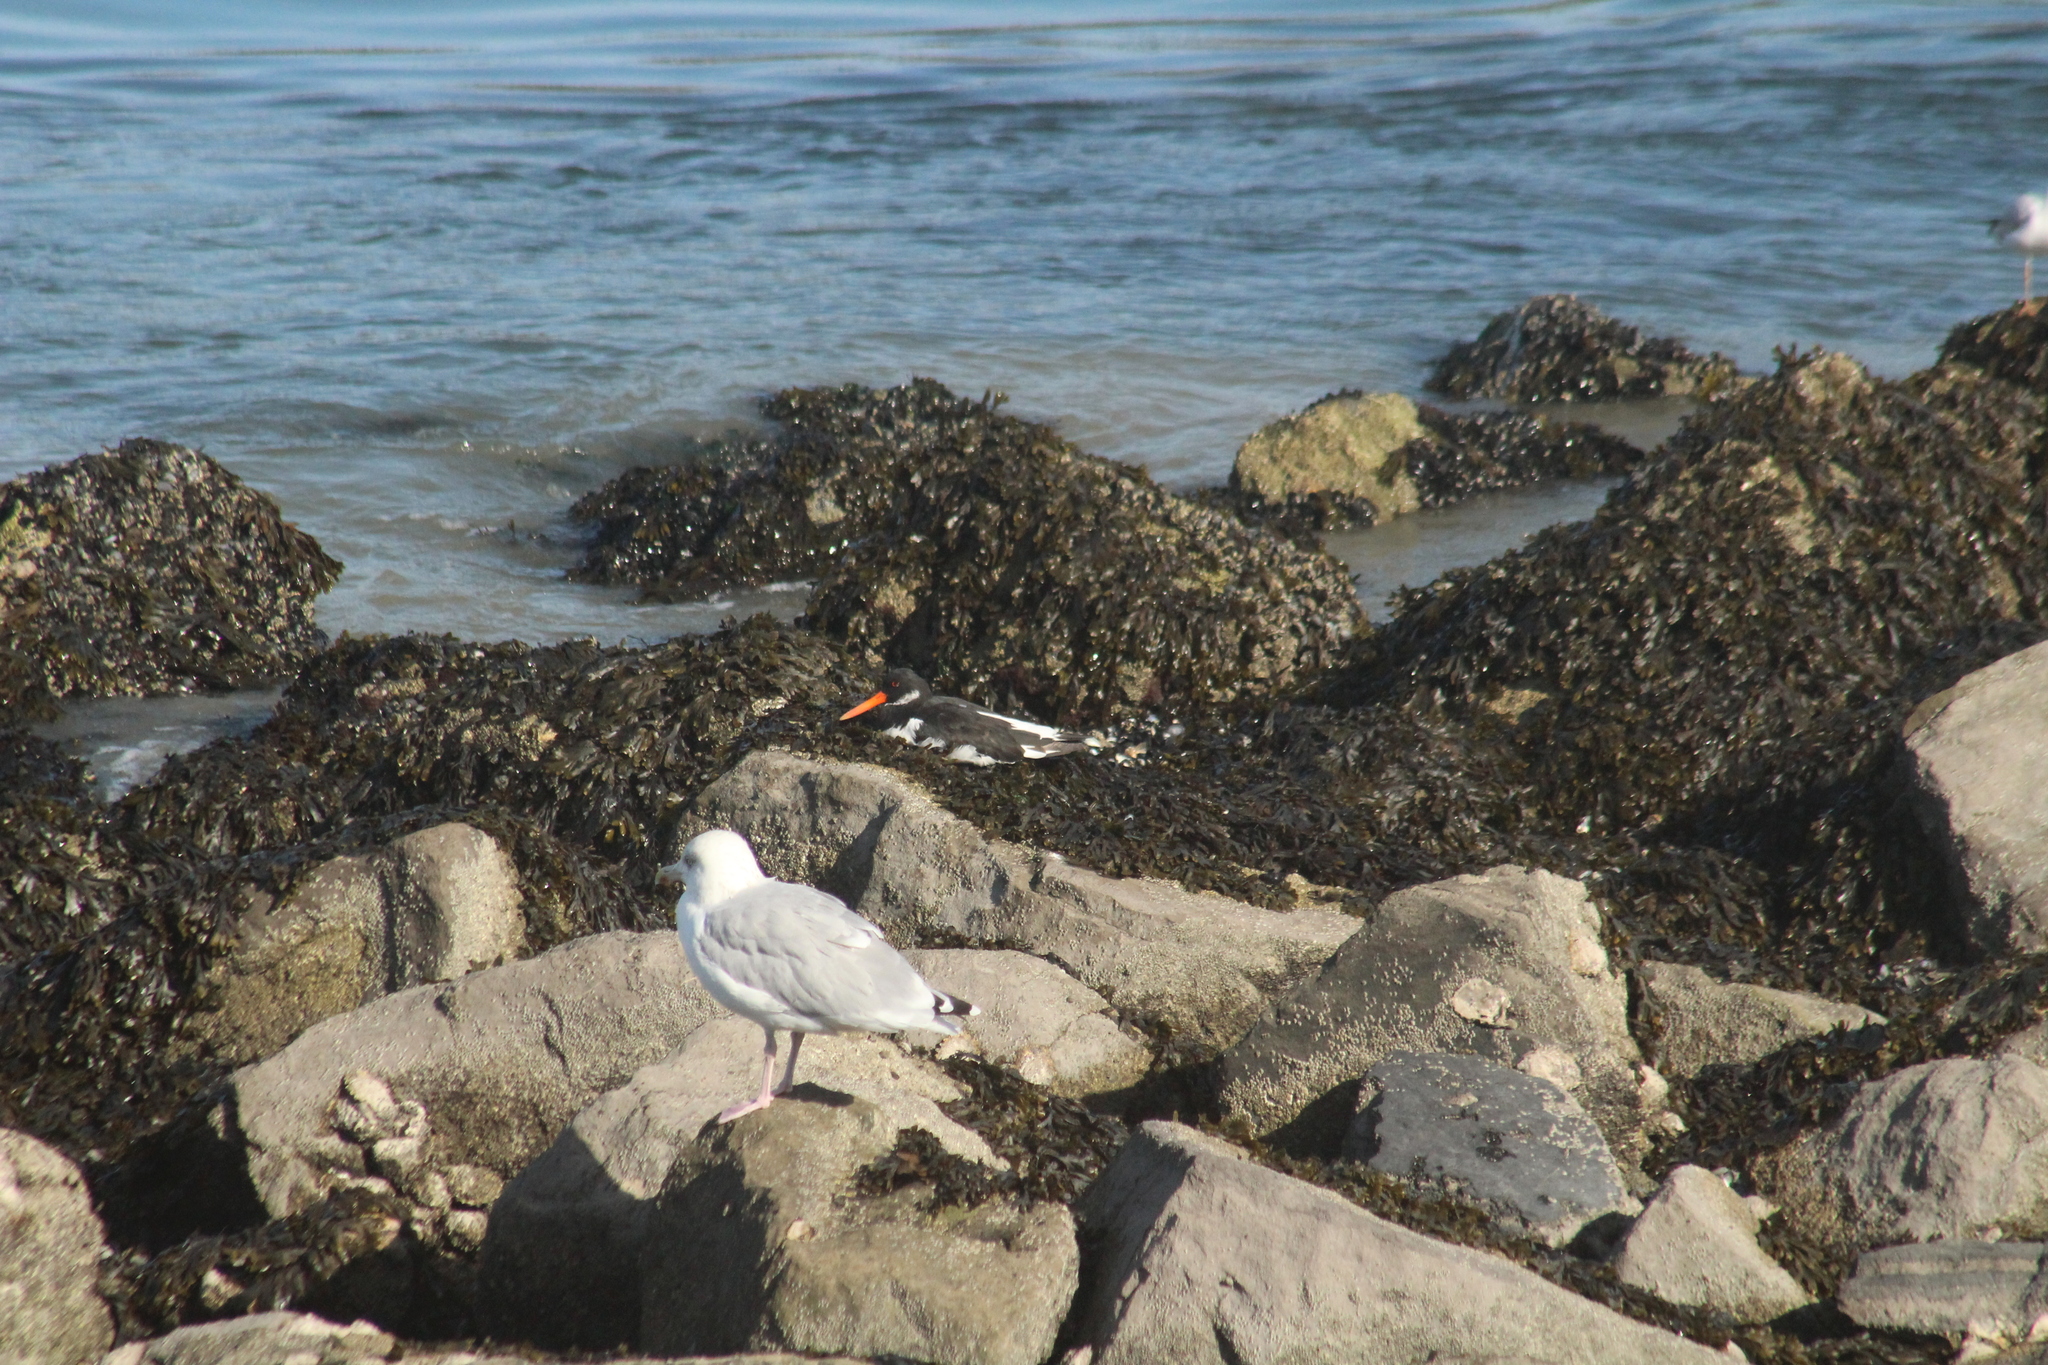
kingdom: Animalia
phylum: Chordata
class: Aves
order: Charadriiformes
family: Haematopodidae
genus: Haematopus
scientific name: Haematopus ostralegus
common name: Eurasian oystercatcher
